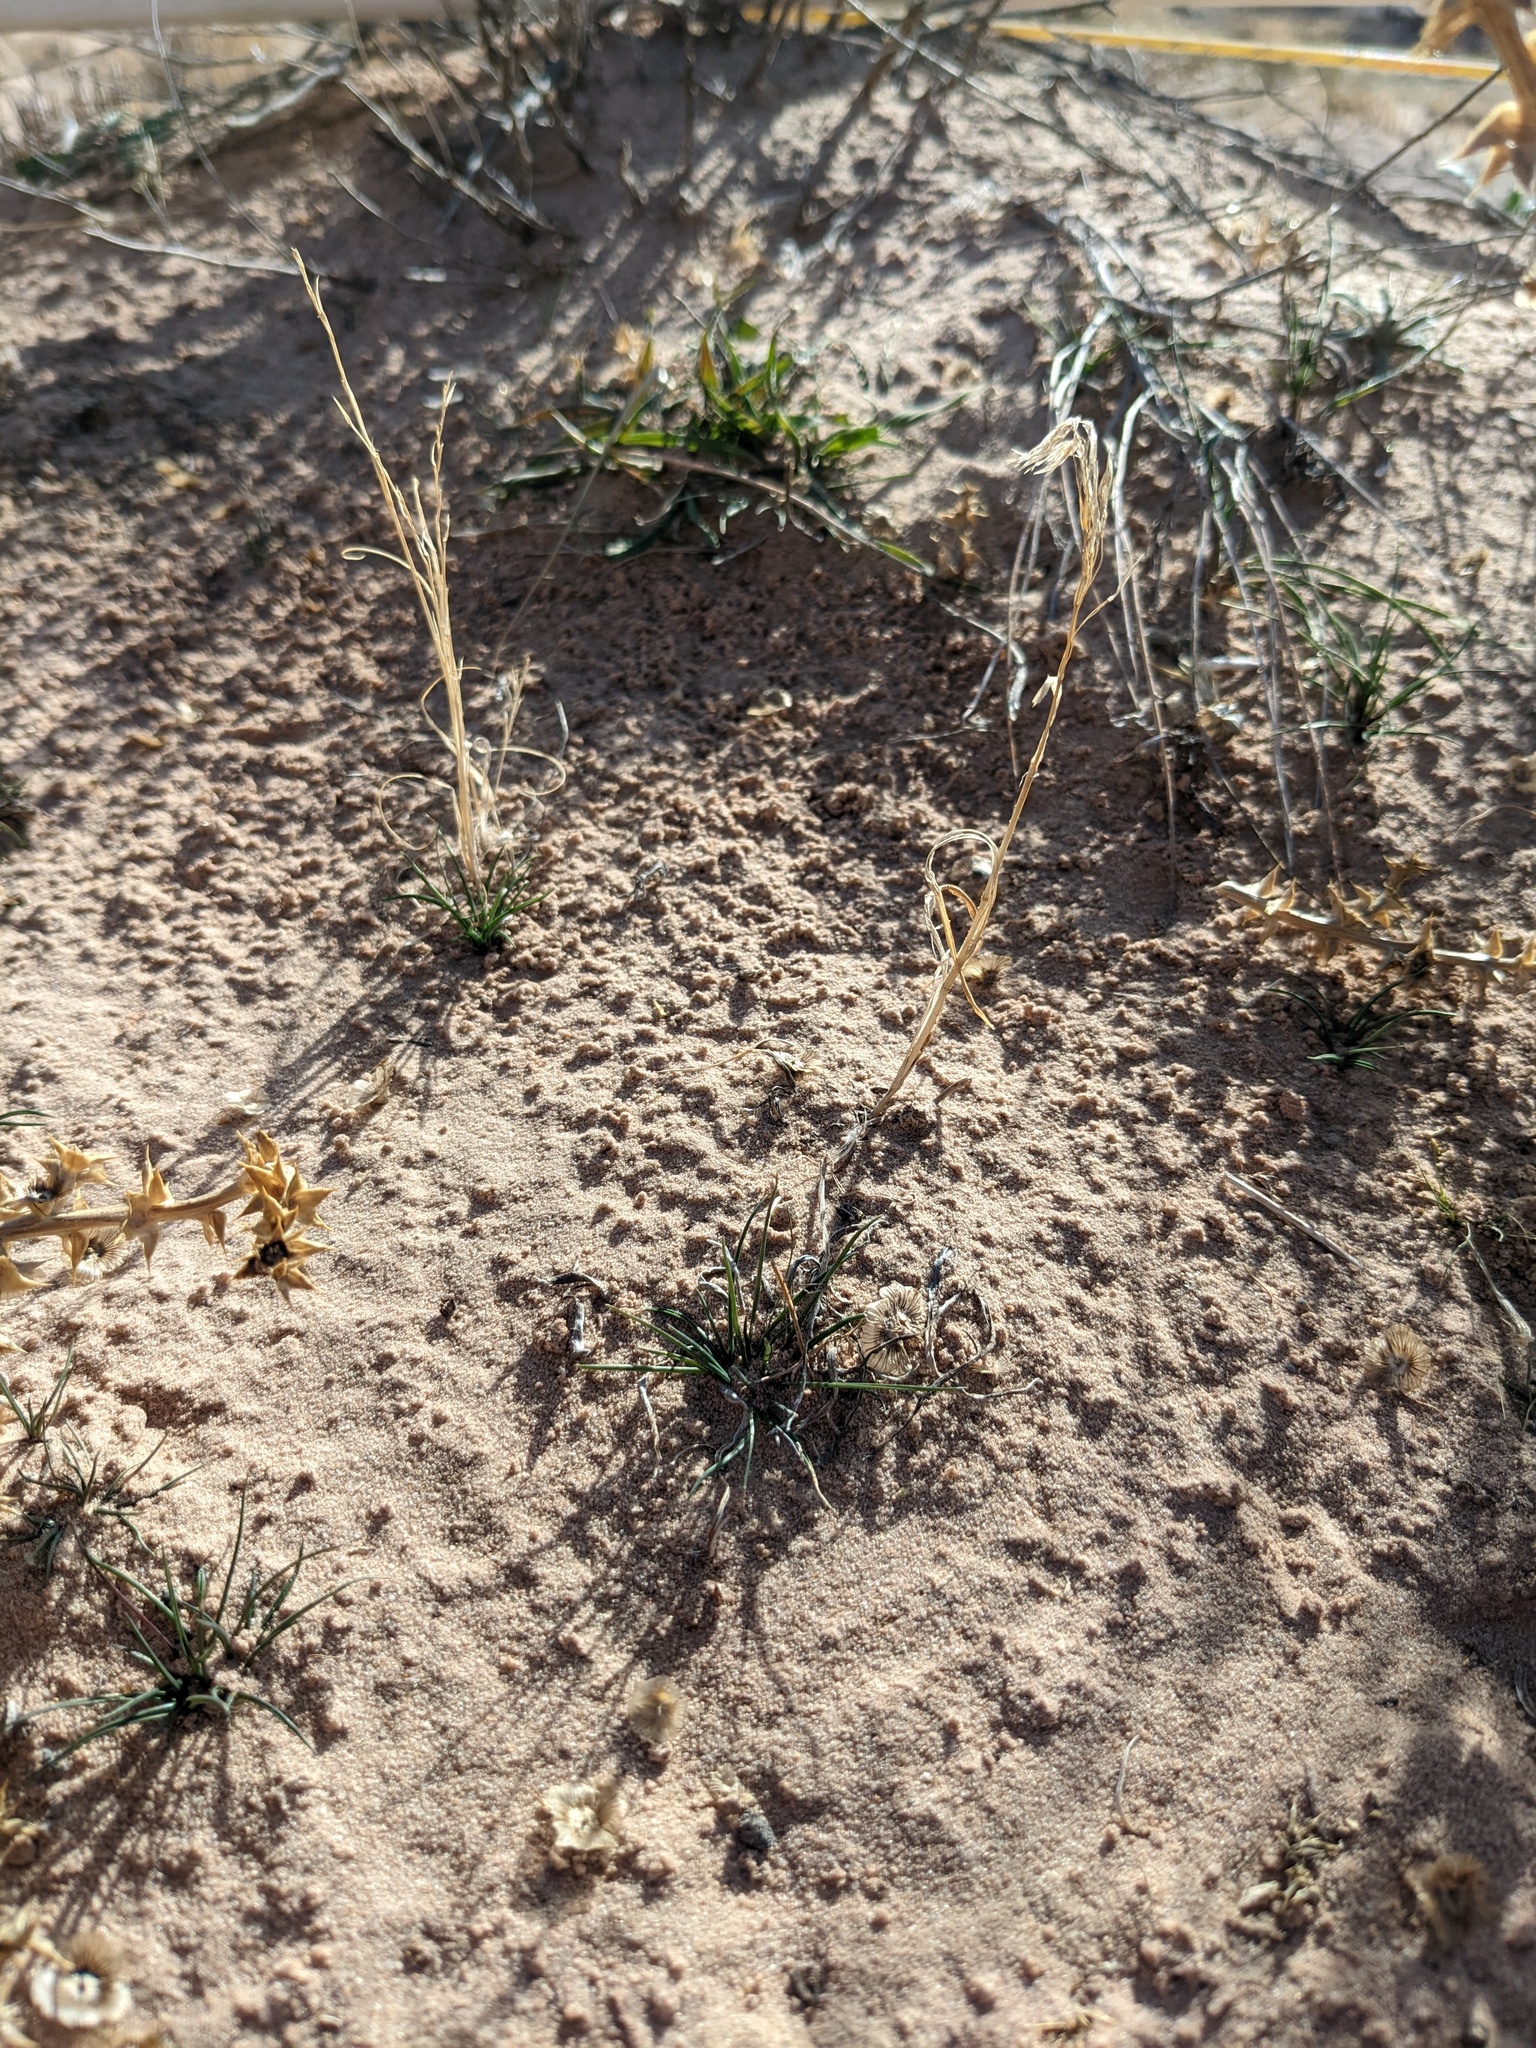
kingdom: Plantae
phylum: Tracheophyta
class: Liliopsida
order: Poales
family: Poaceae
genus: Bromus
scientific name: Bromus tectorum
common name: Cheatgrass
